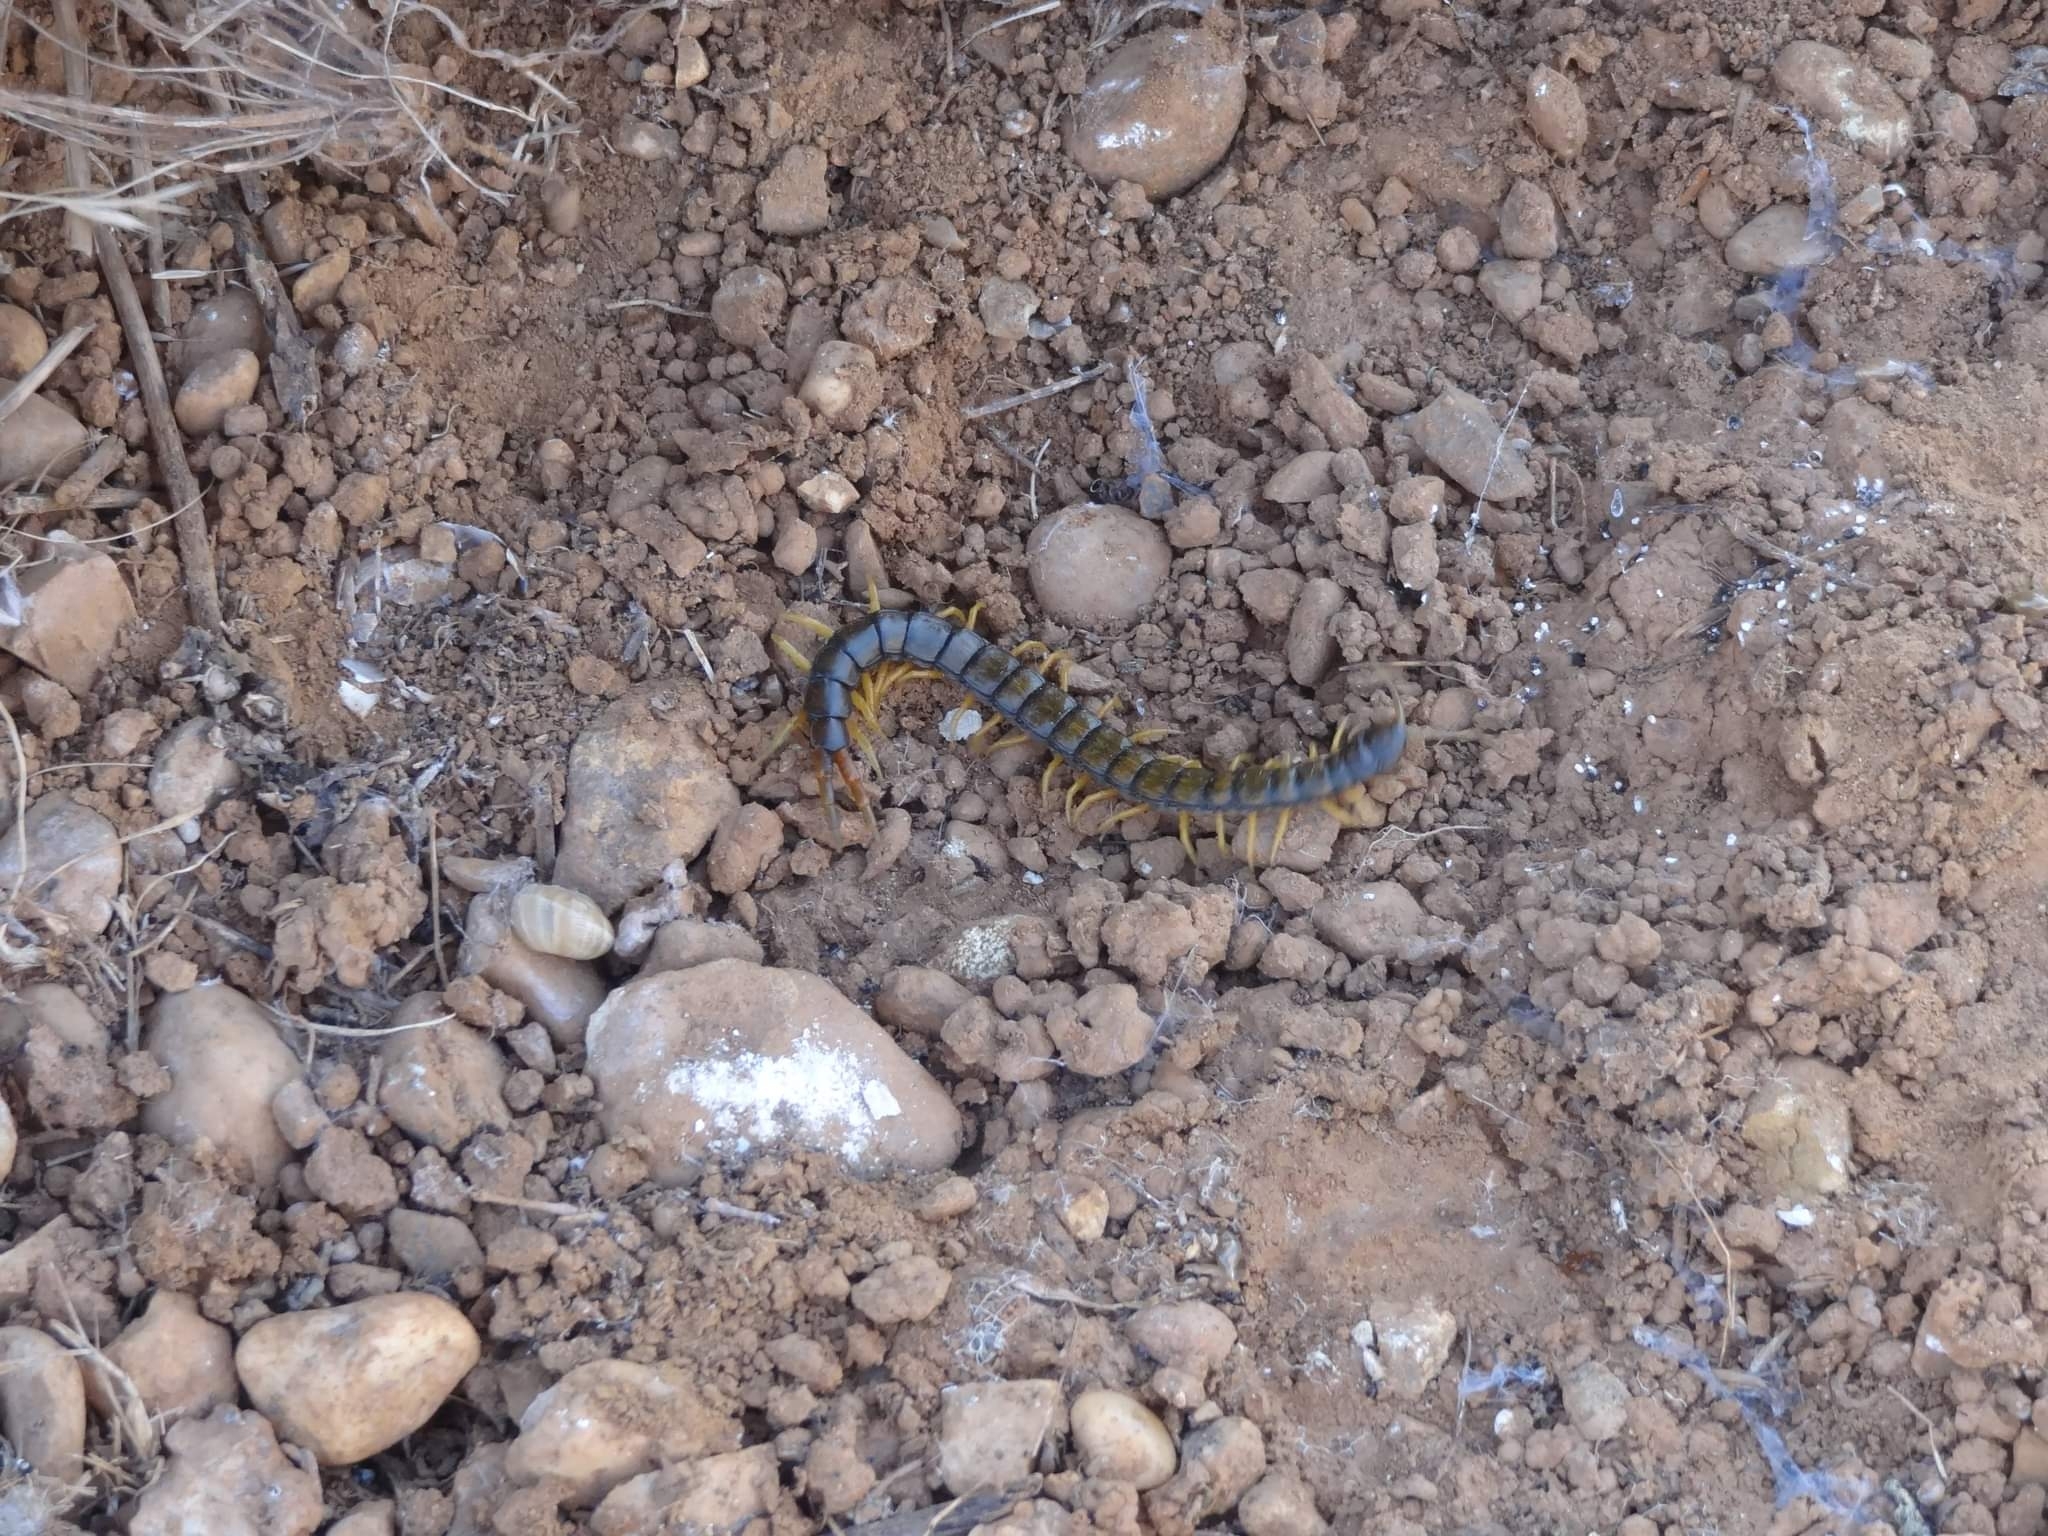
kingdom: Animalia
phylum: Arthropoda
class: Chilopoda
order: Scolopendromorpha
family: Scolopendridae
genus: Scolopendra
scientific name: Scolopendra cingulata
